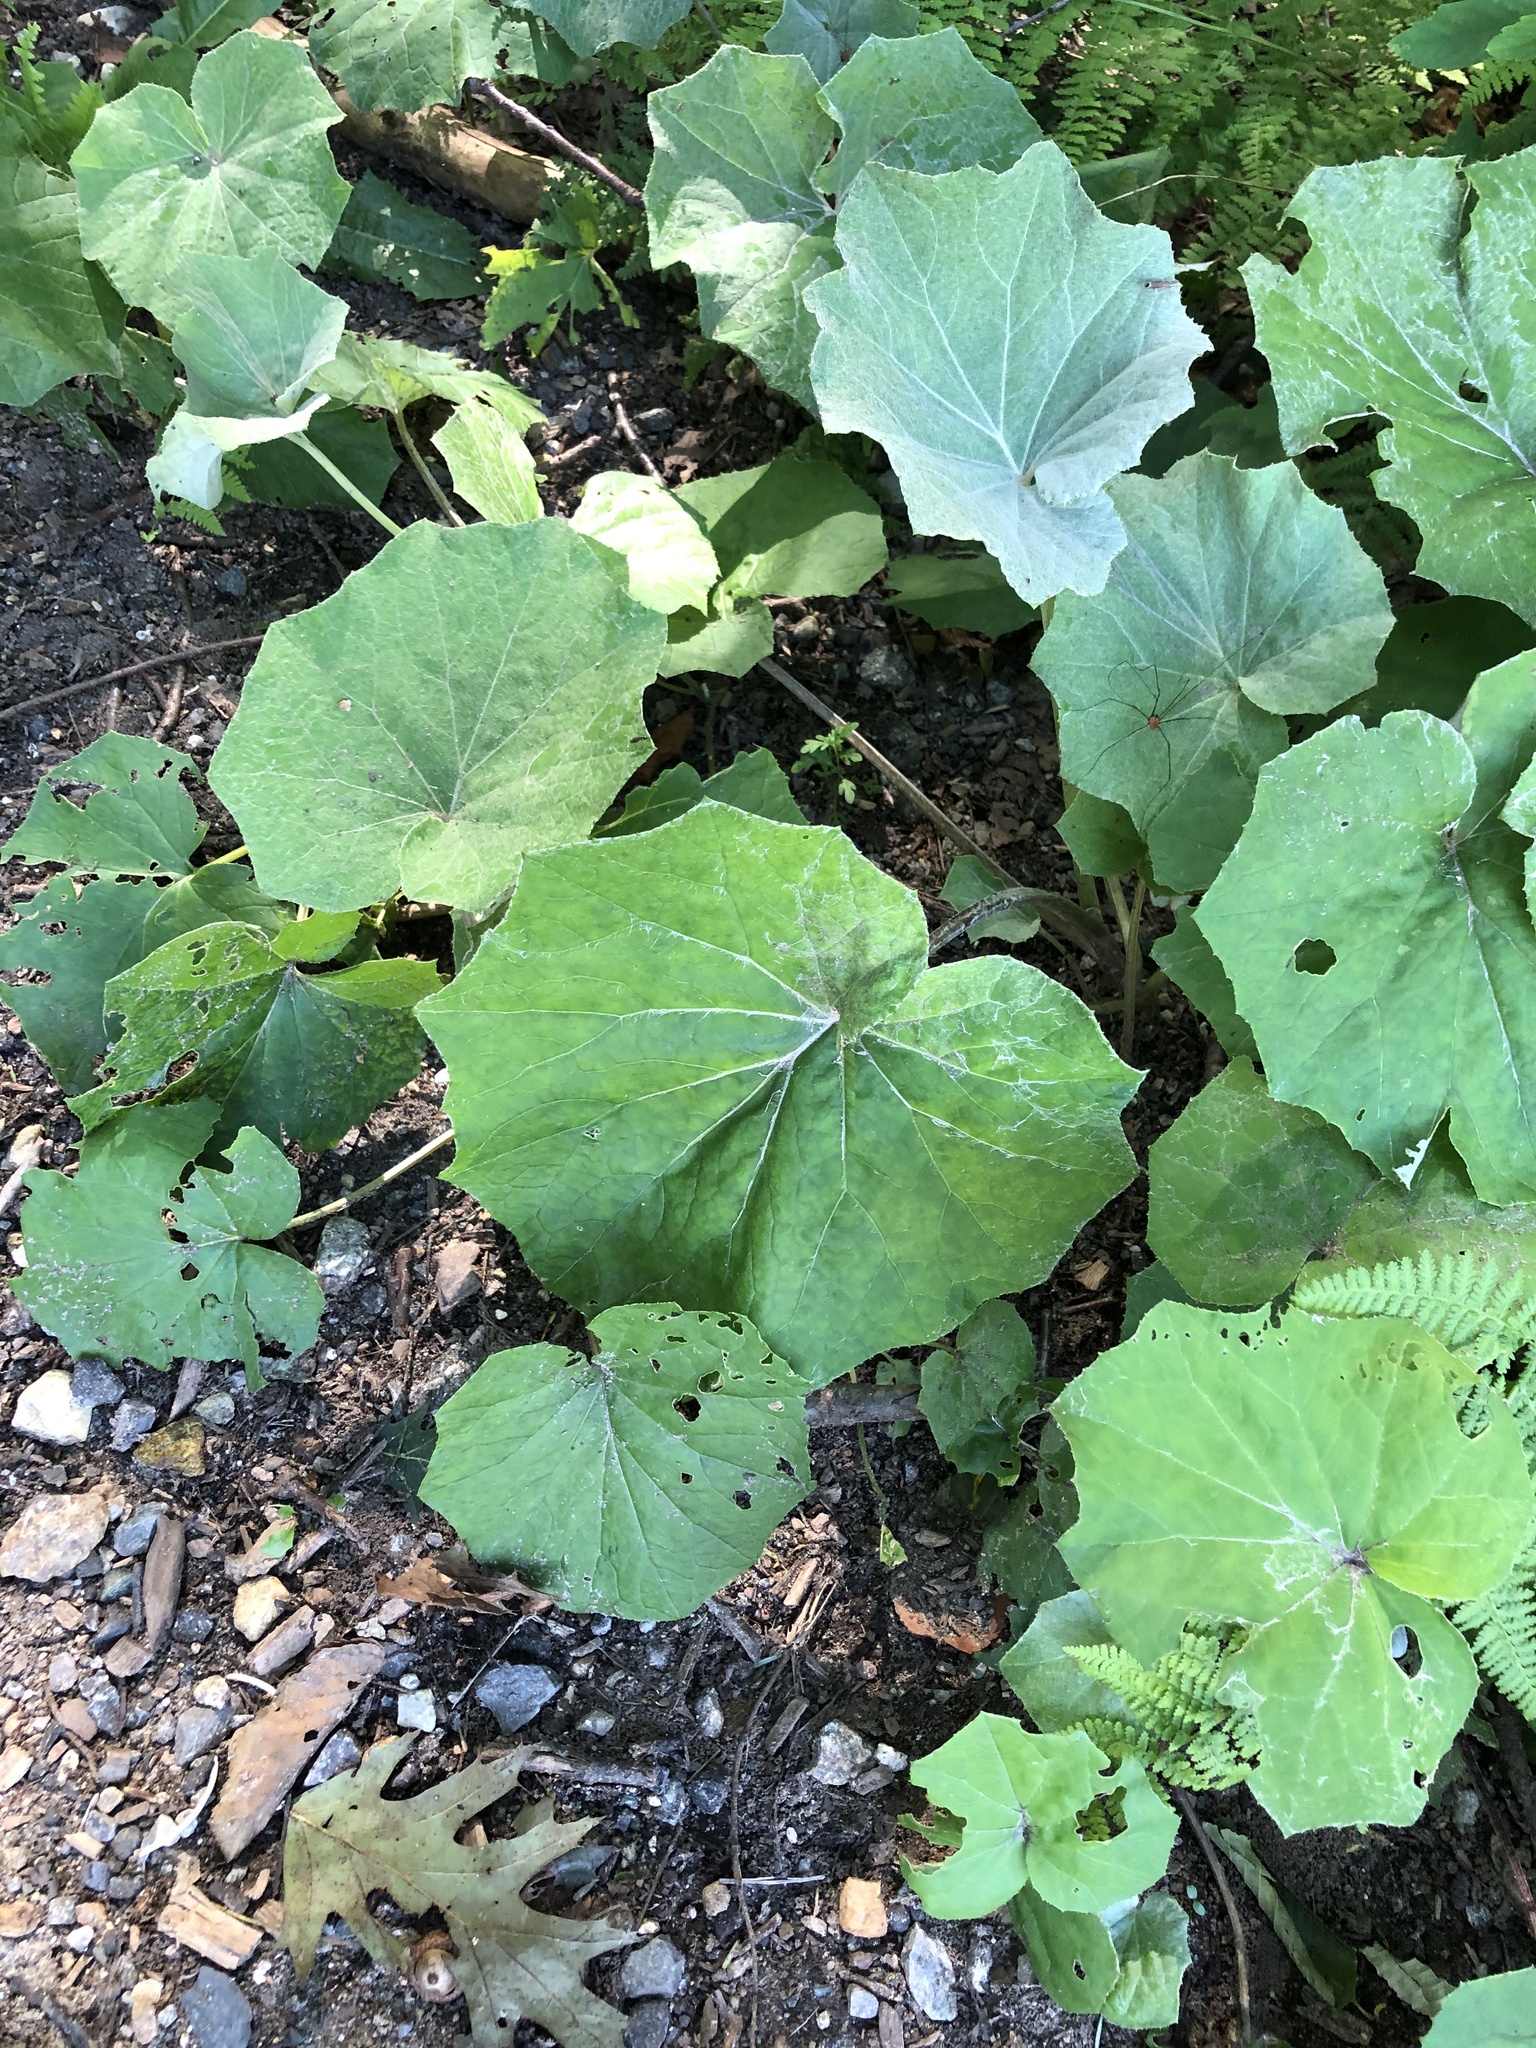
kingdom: Plantae
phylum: Tracheophyta
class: Magnoliopsida
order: Asterales
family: Asteraceae
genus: Tussilago
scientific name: Tussilago farfara
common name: Coltsfoot
